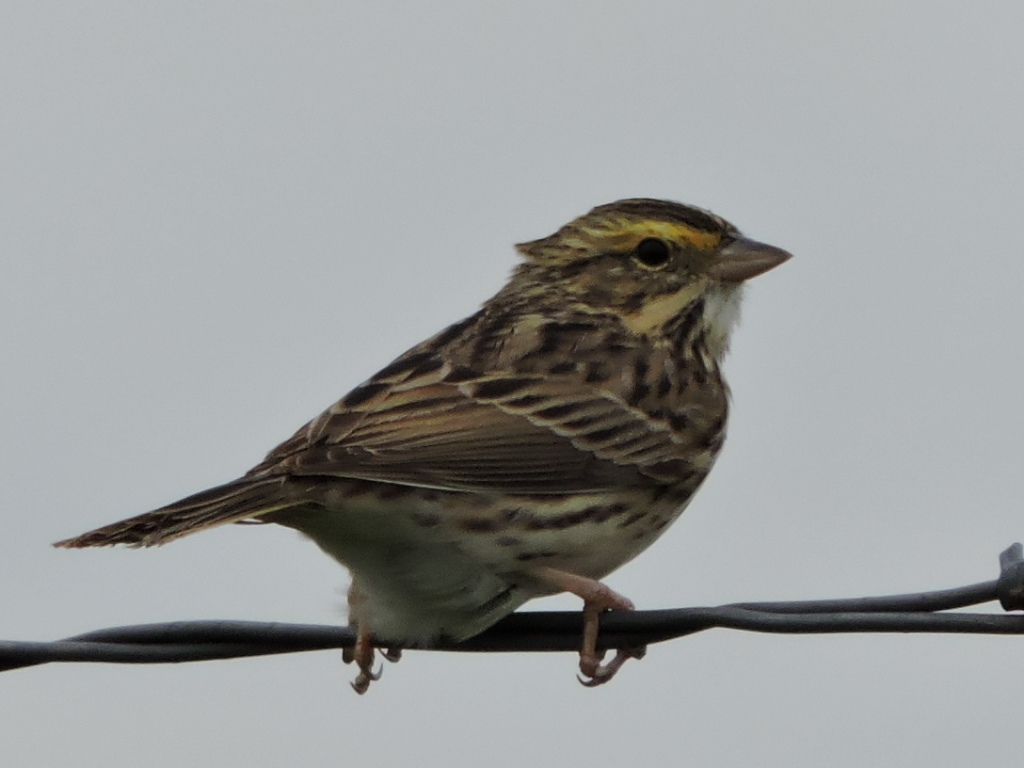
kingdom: Animalia
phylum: Chordata
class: Aves
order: Passeriformes
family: Passerellidae
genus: Passerculus
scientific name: Passerculus sandwichensis
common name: Savannah sparrow
